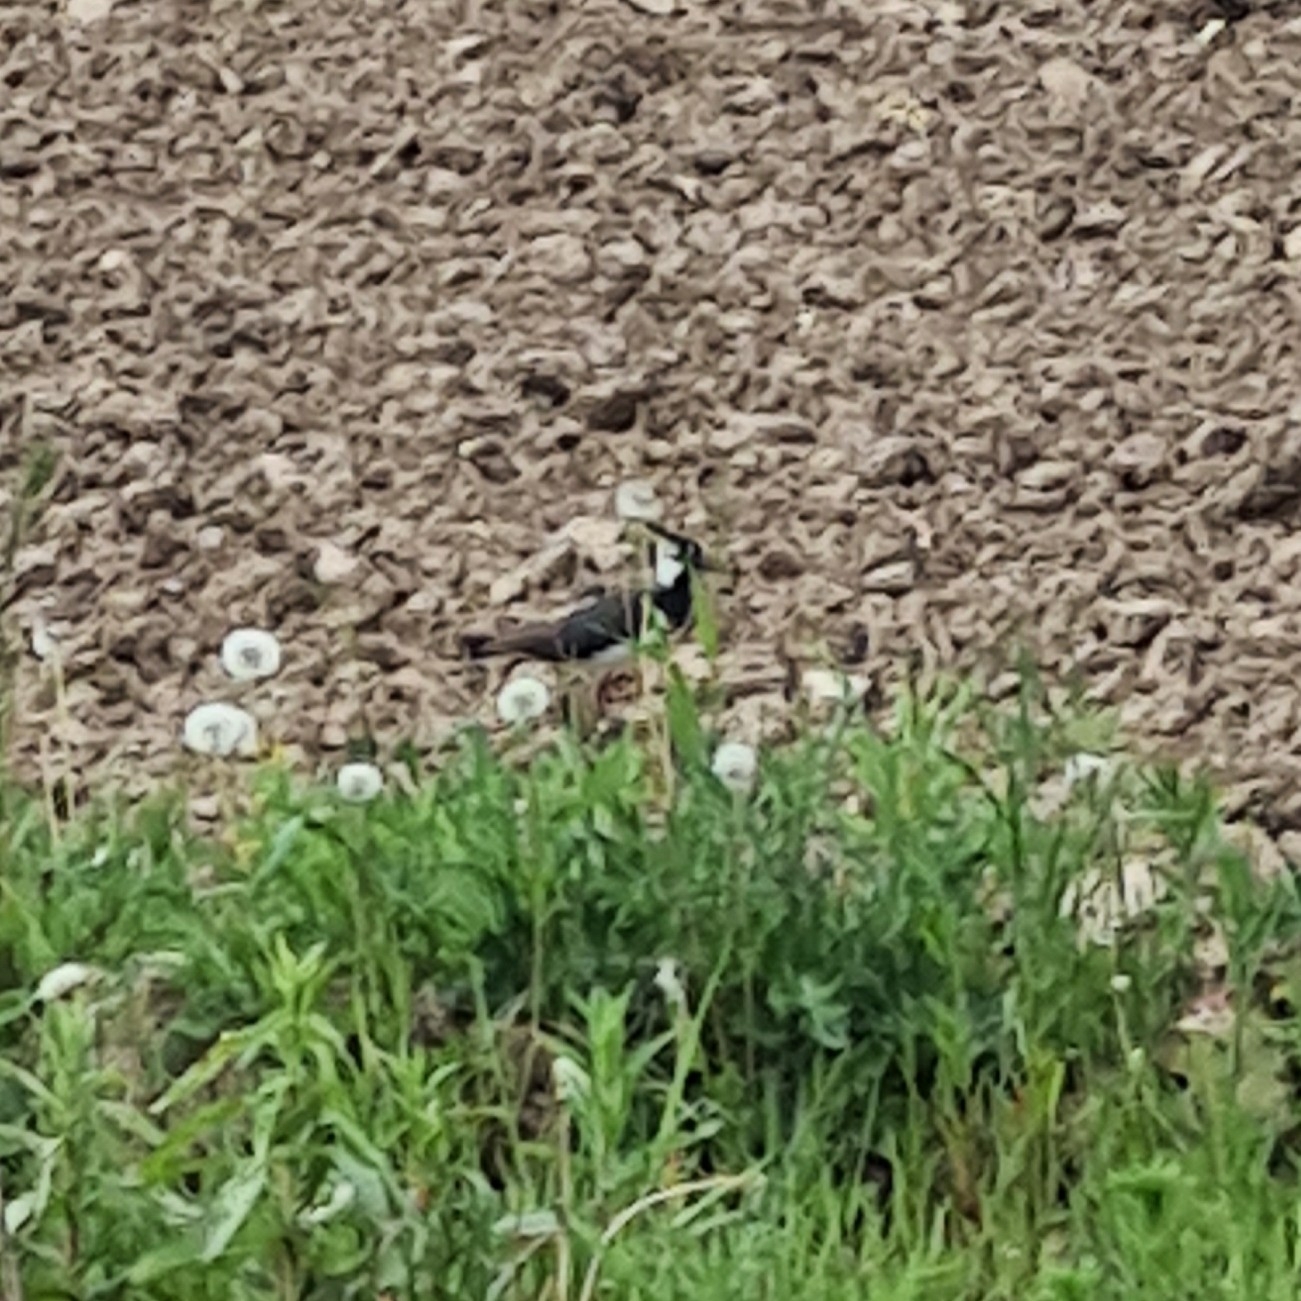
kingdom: Animalia
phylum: Chordata
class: Aves
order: Charadriiformes
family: Charadriidae
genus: Vanellus
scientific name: Vanellus vanellus
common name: Northern lapwing
